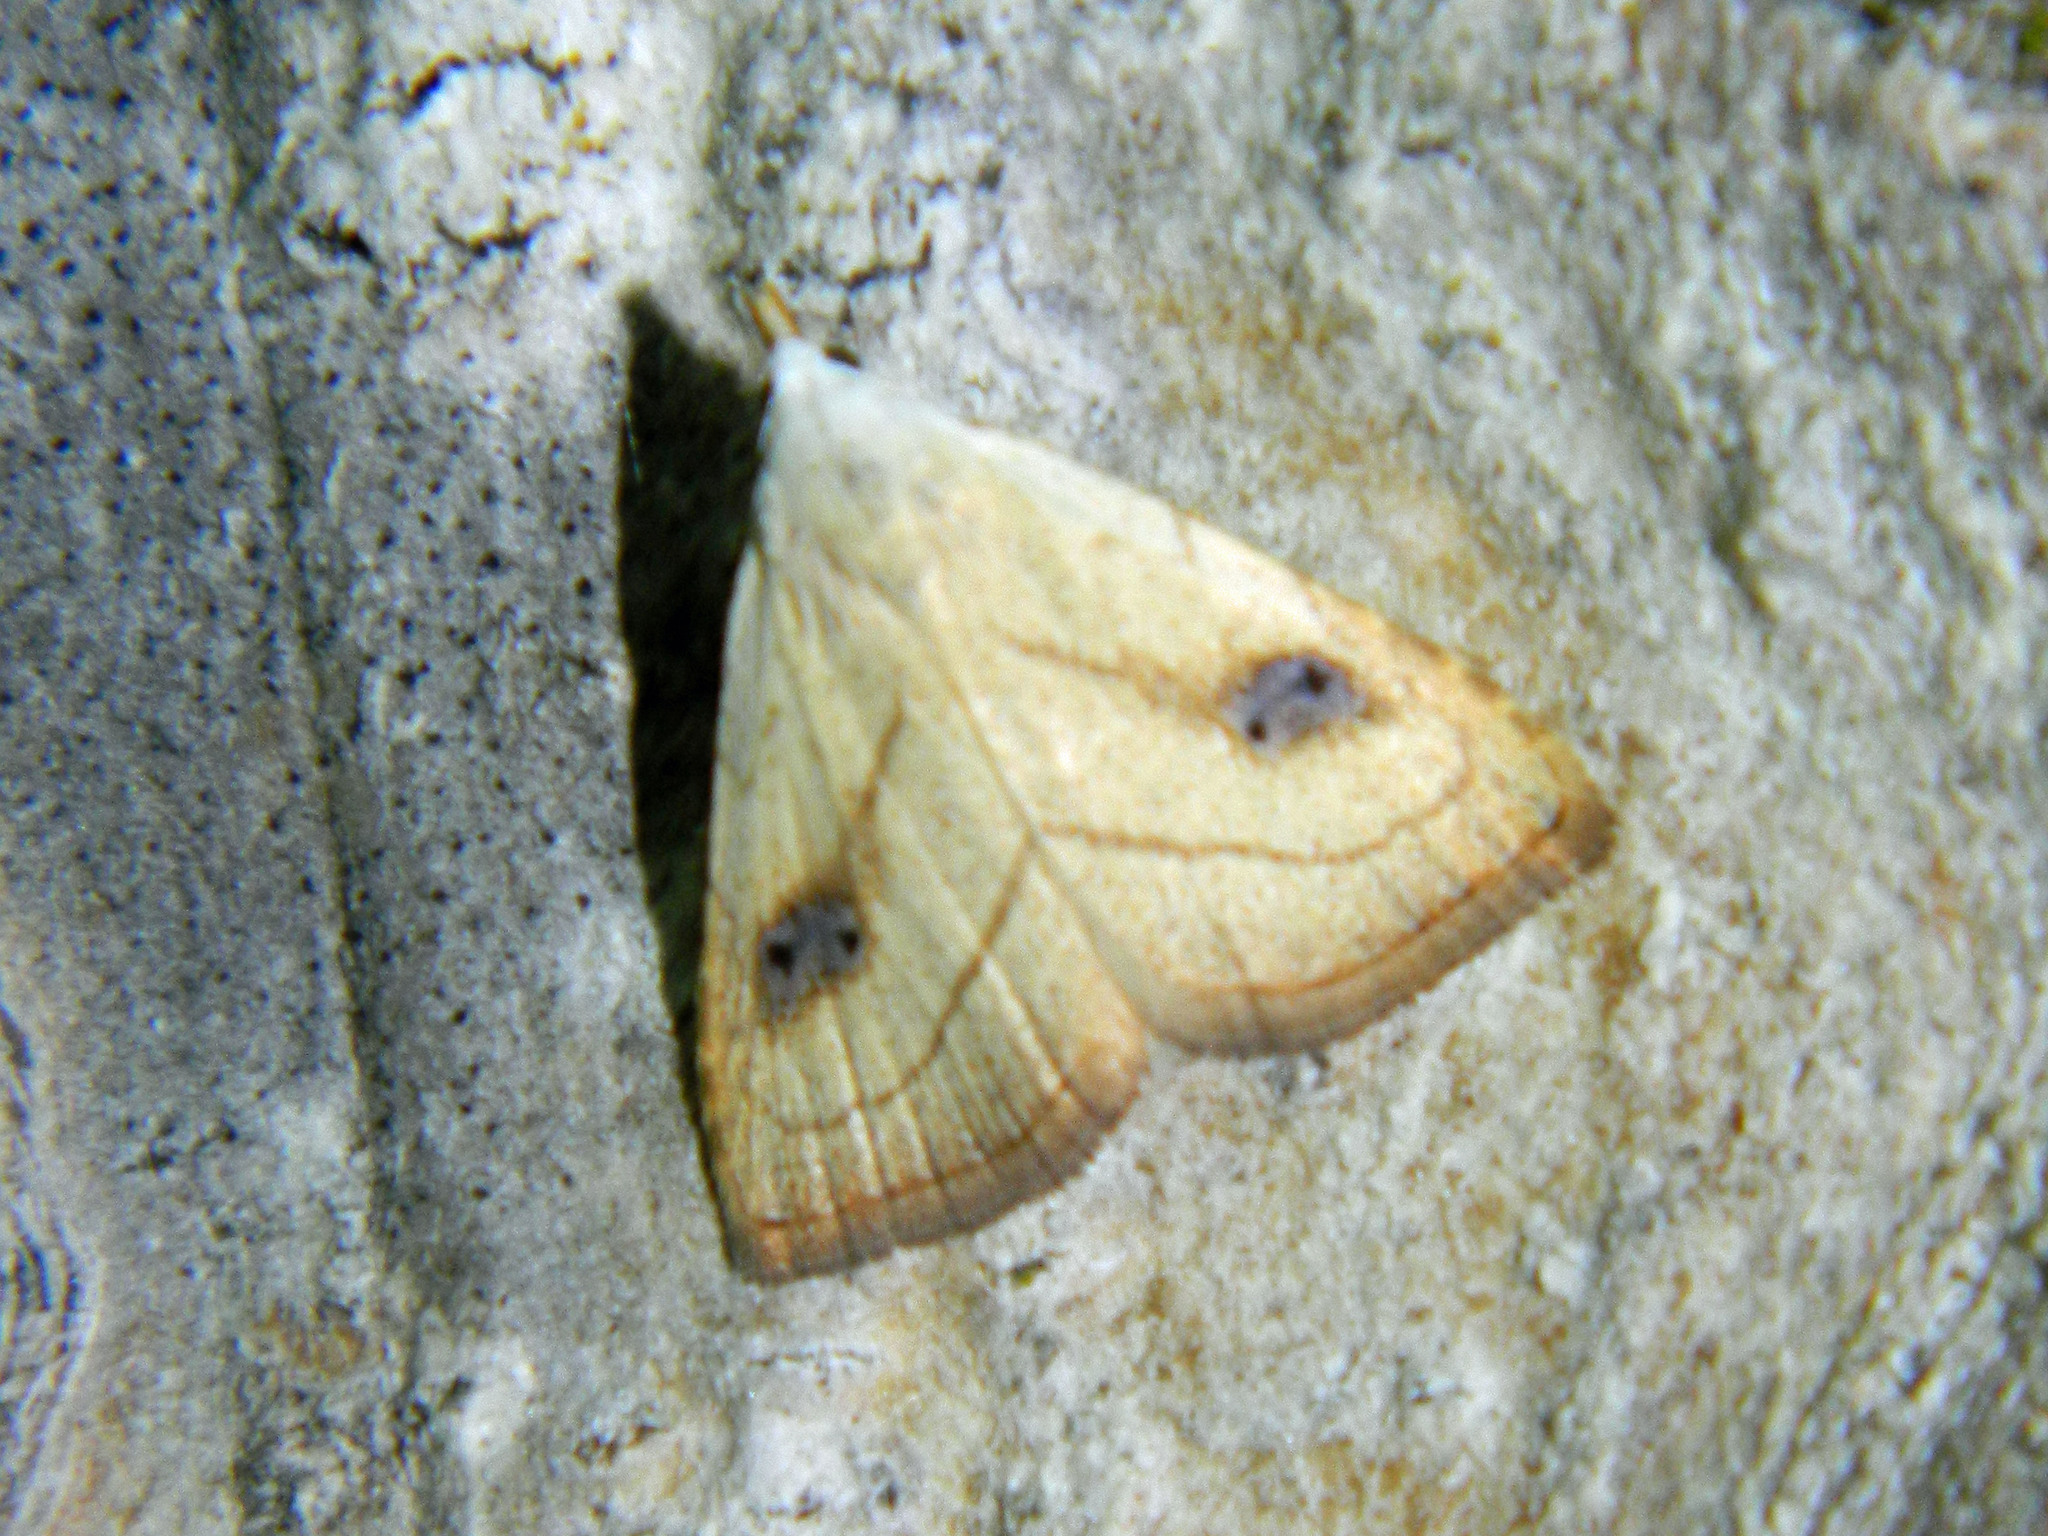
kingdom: Animalia
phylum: Arthropoda
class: Insecta
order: Lepidoptera
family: Erebidae
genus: Rivula
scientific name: Rivula propinqualis
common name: Spotted grass moth
